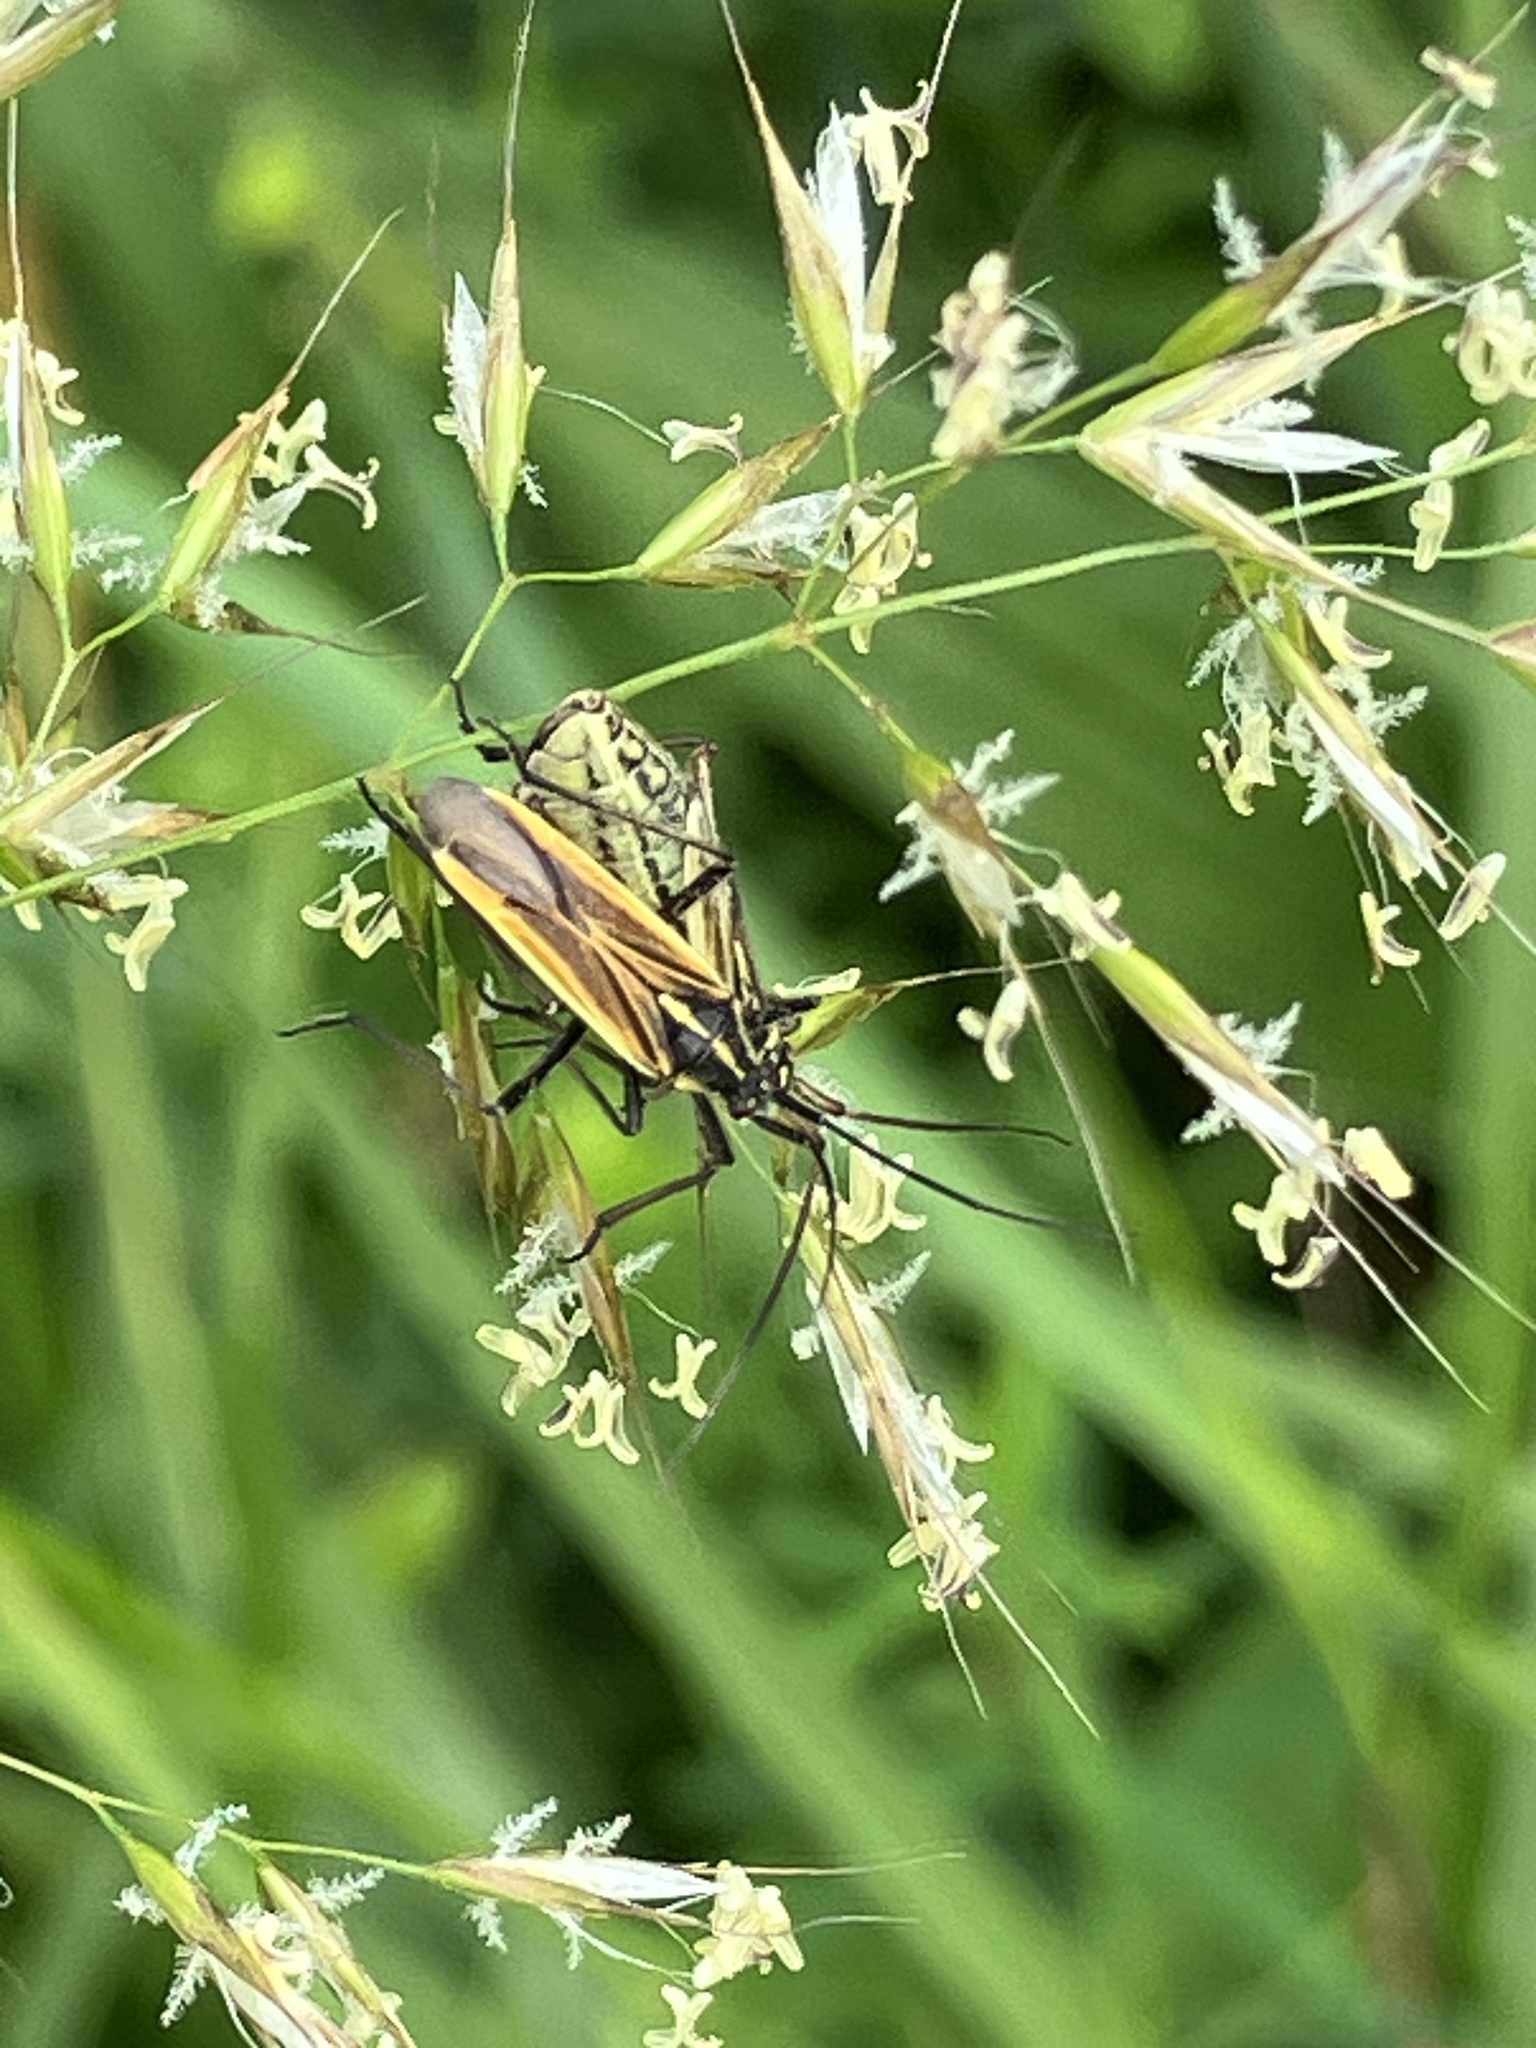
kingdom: Animalia
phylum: Arthropoda
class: Insecta
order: Hemiptera
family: Miridae
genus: Leptopterna
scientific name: Leptopterna dolabrata
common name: Meadow plant bug
